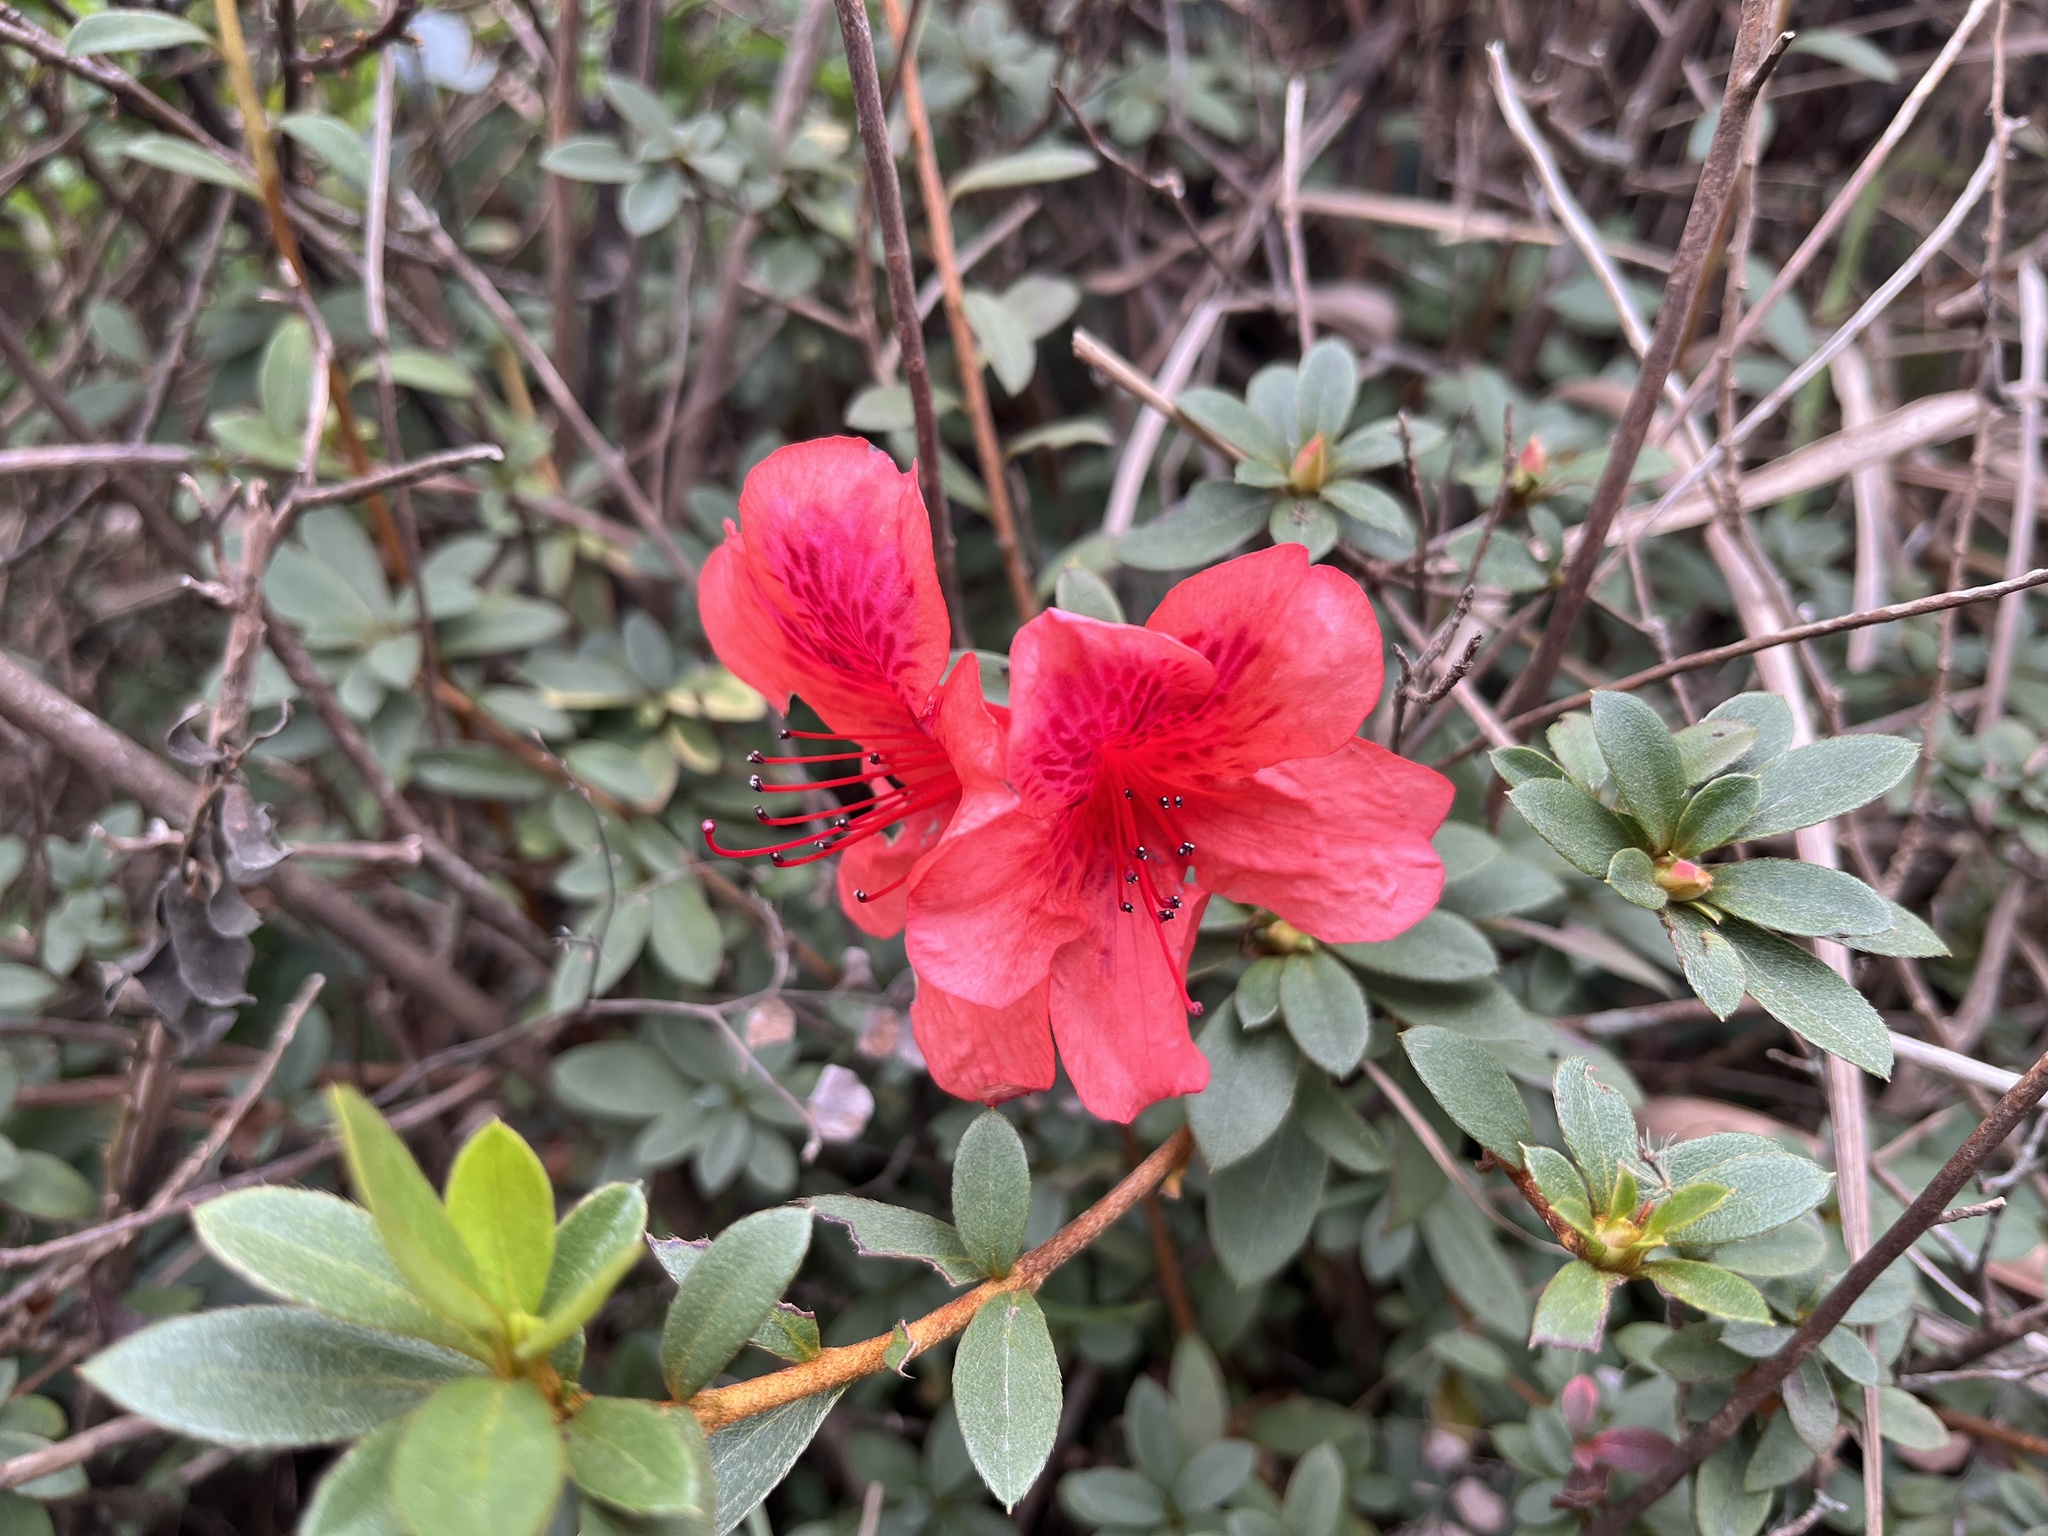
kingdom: Plantae
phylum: Tracheophyta
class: Magnoliopsida
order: Ericales
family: Ericaceae
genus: Rhododendron
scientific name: Rhododendron simsii
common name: Rhododendron
